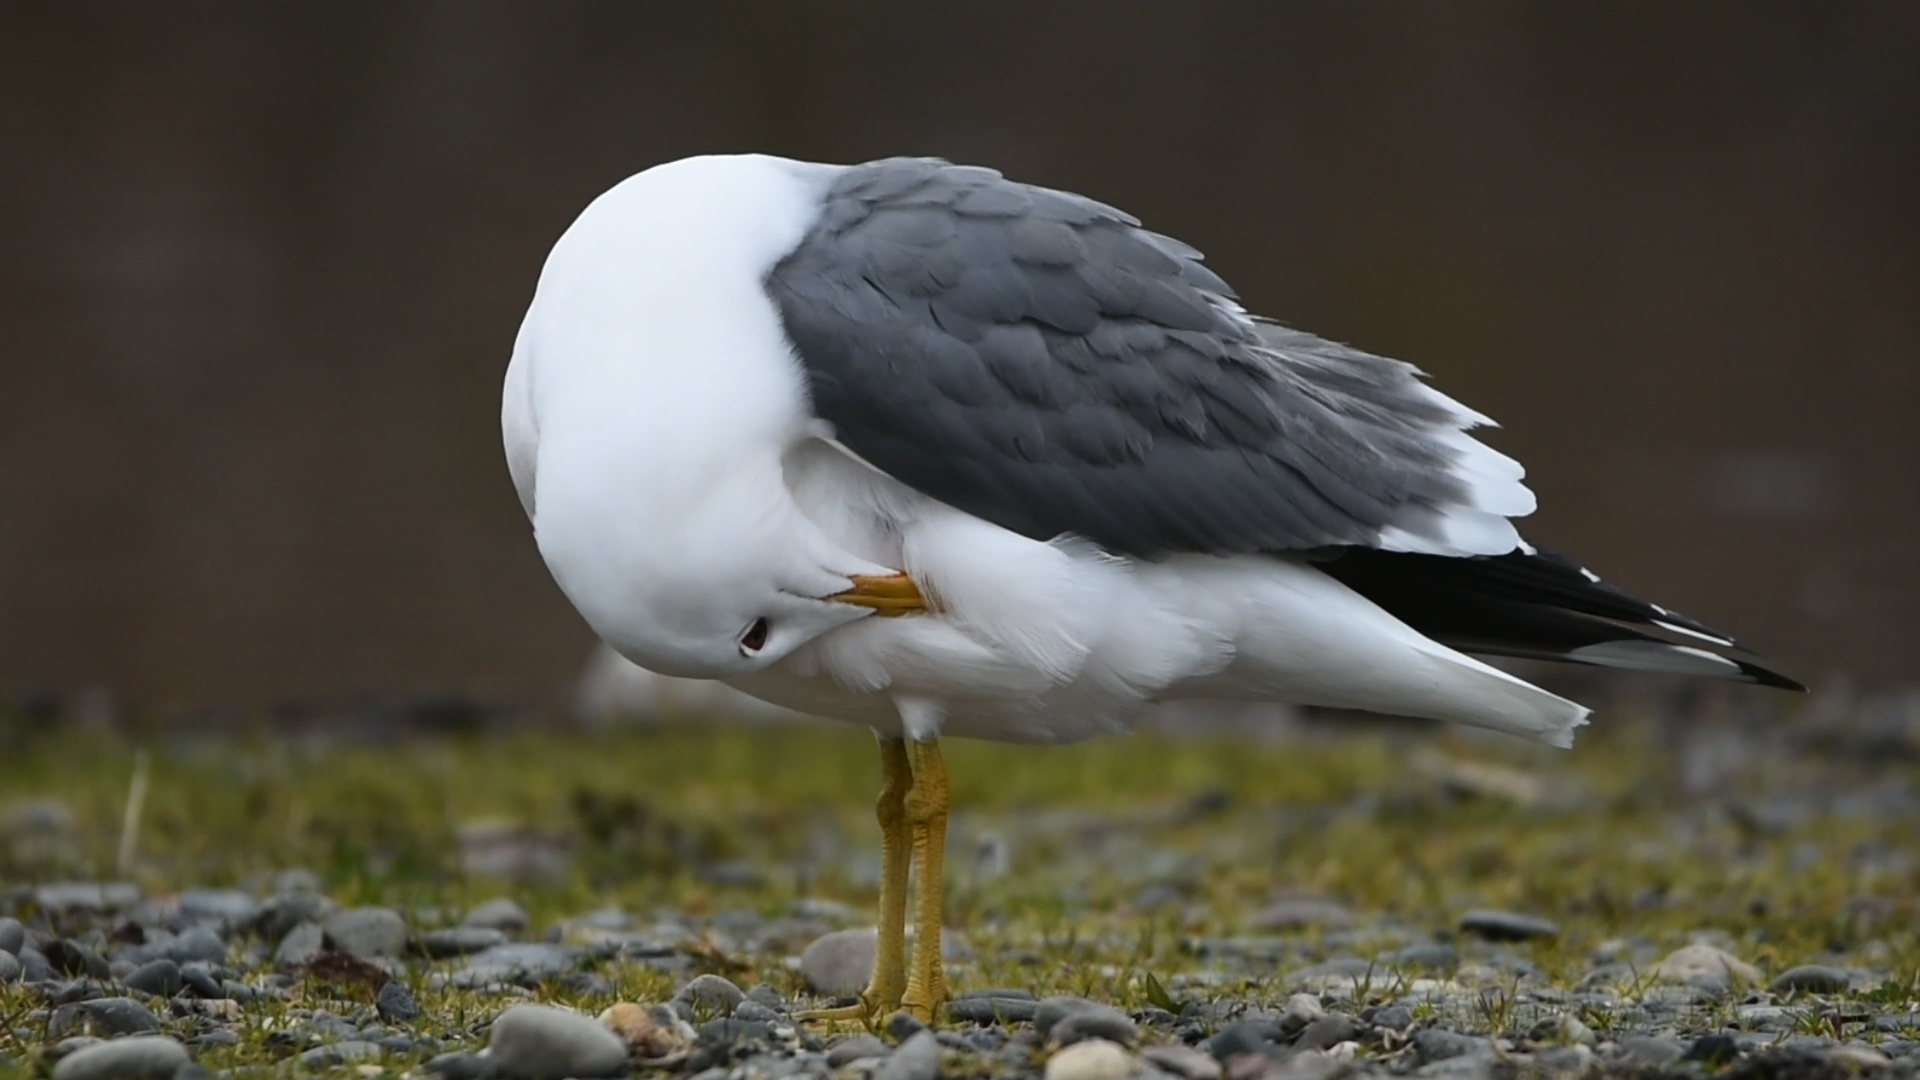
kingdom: Animalia
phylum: Chordata
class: Aves
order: Charadriiformes
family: Laridae
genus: Larus
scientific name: Larus canus
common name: Mew gull
